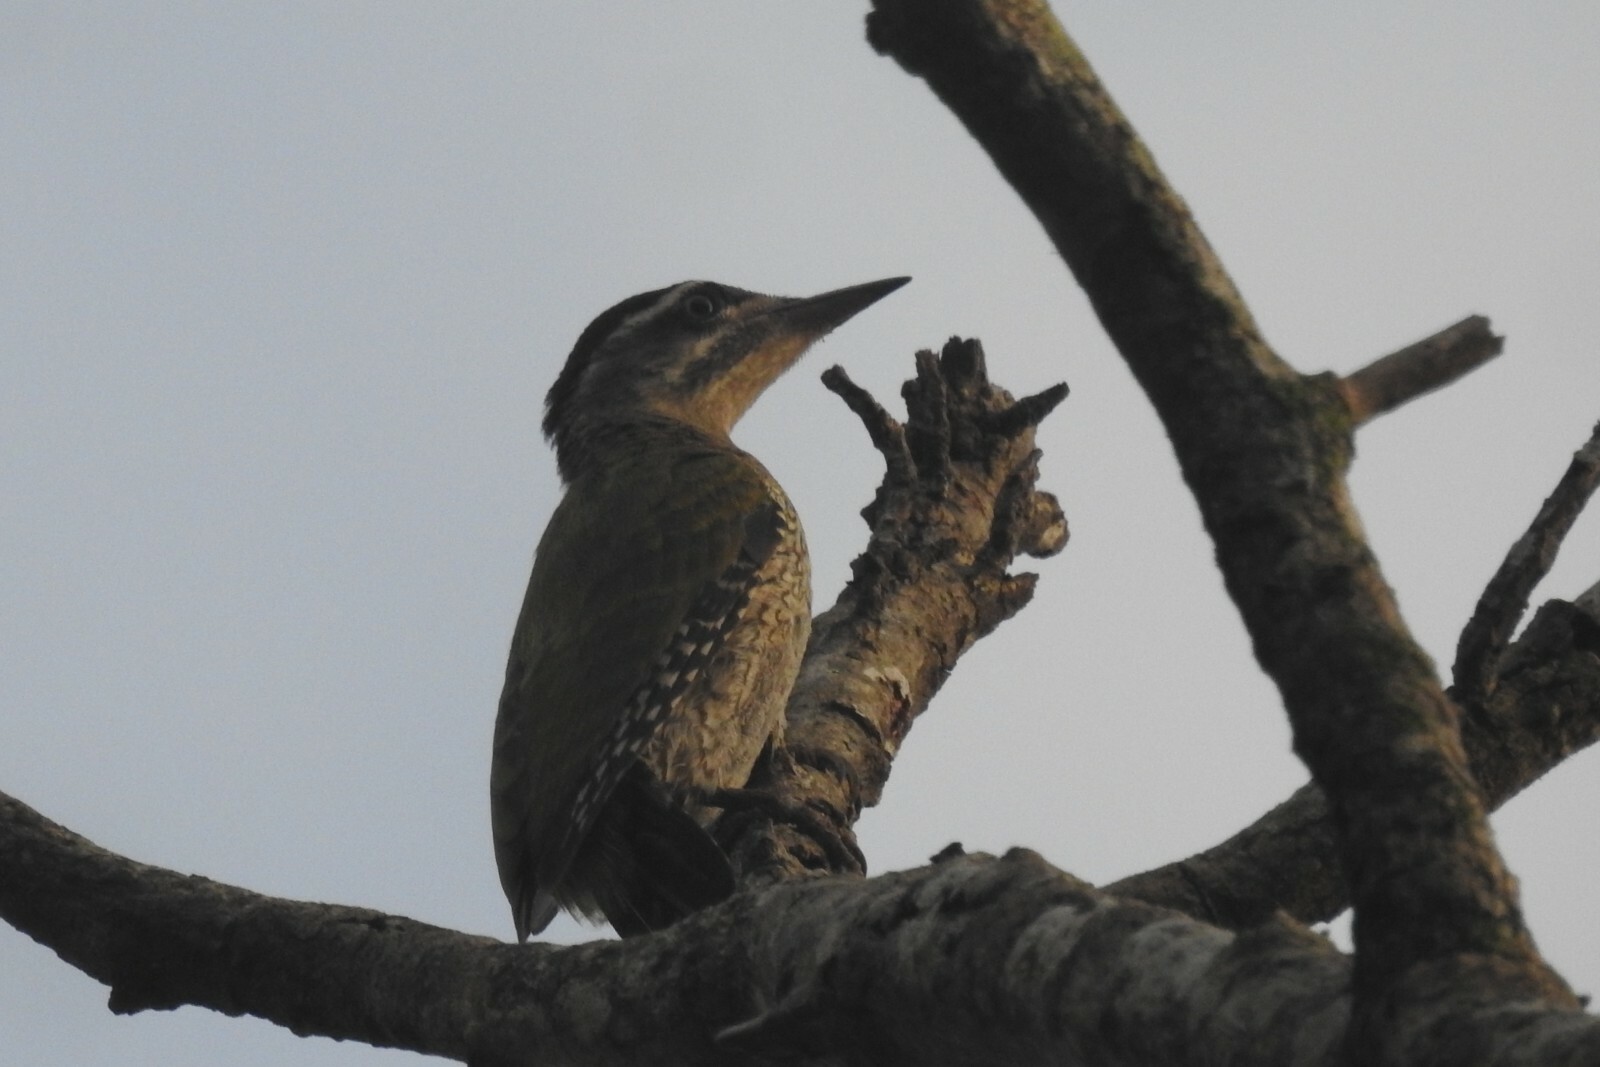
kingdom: Animalia
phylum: Chordata
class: Aves
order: Piciformes
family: Picidae
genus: Picus
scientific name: Picus xanthopygaeus
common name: Streak-throated woodpecker
